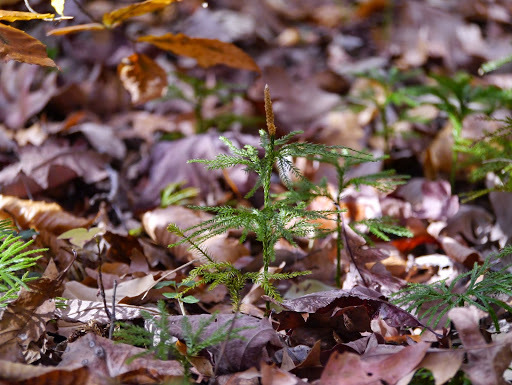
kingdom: Plantae
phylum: Tracheophyta
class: Lycopodiopsida
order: Lycopodiales
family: Lycopodiaceae
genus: Dendrolycopodium
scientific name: Dendrolycopodium obscurum
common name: Common ground-pine
